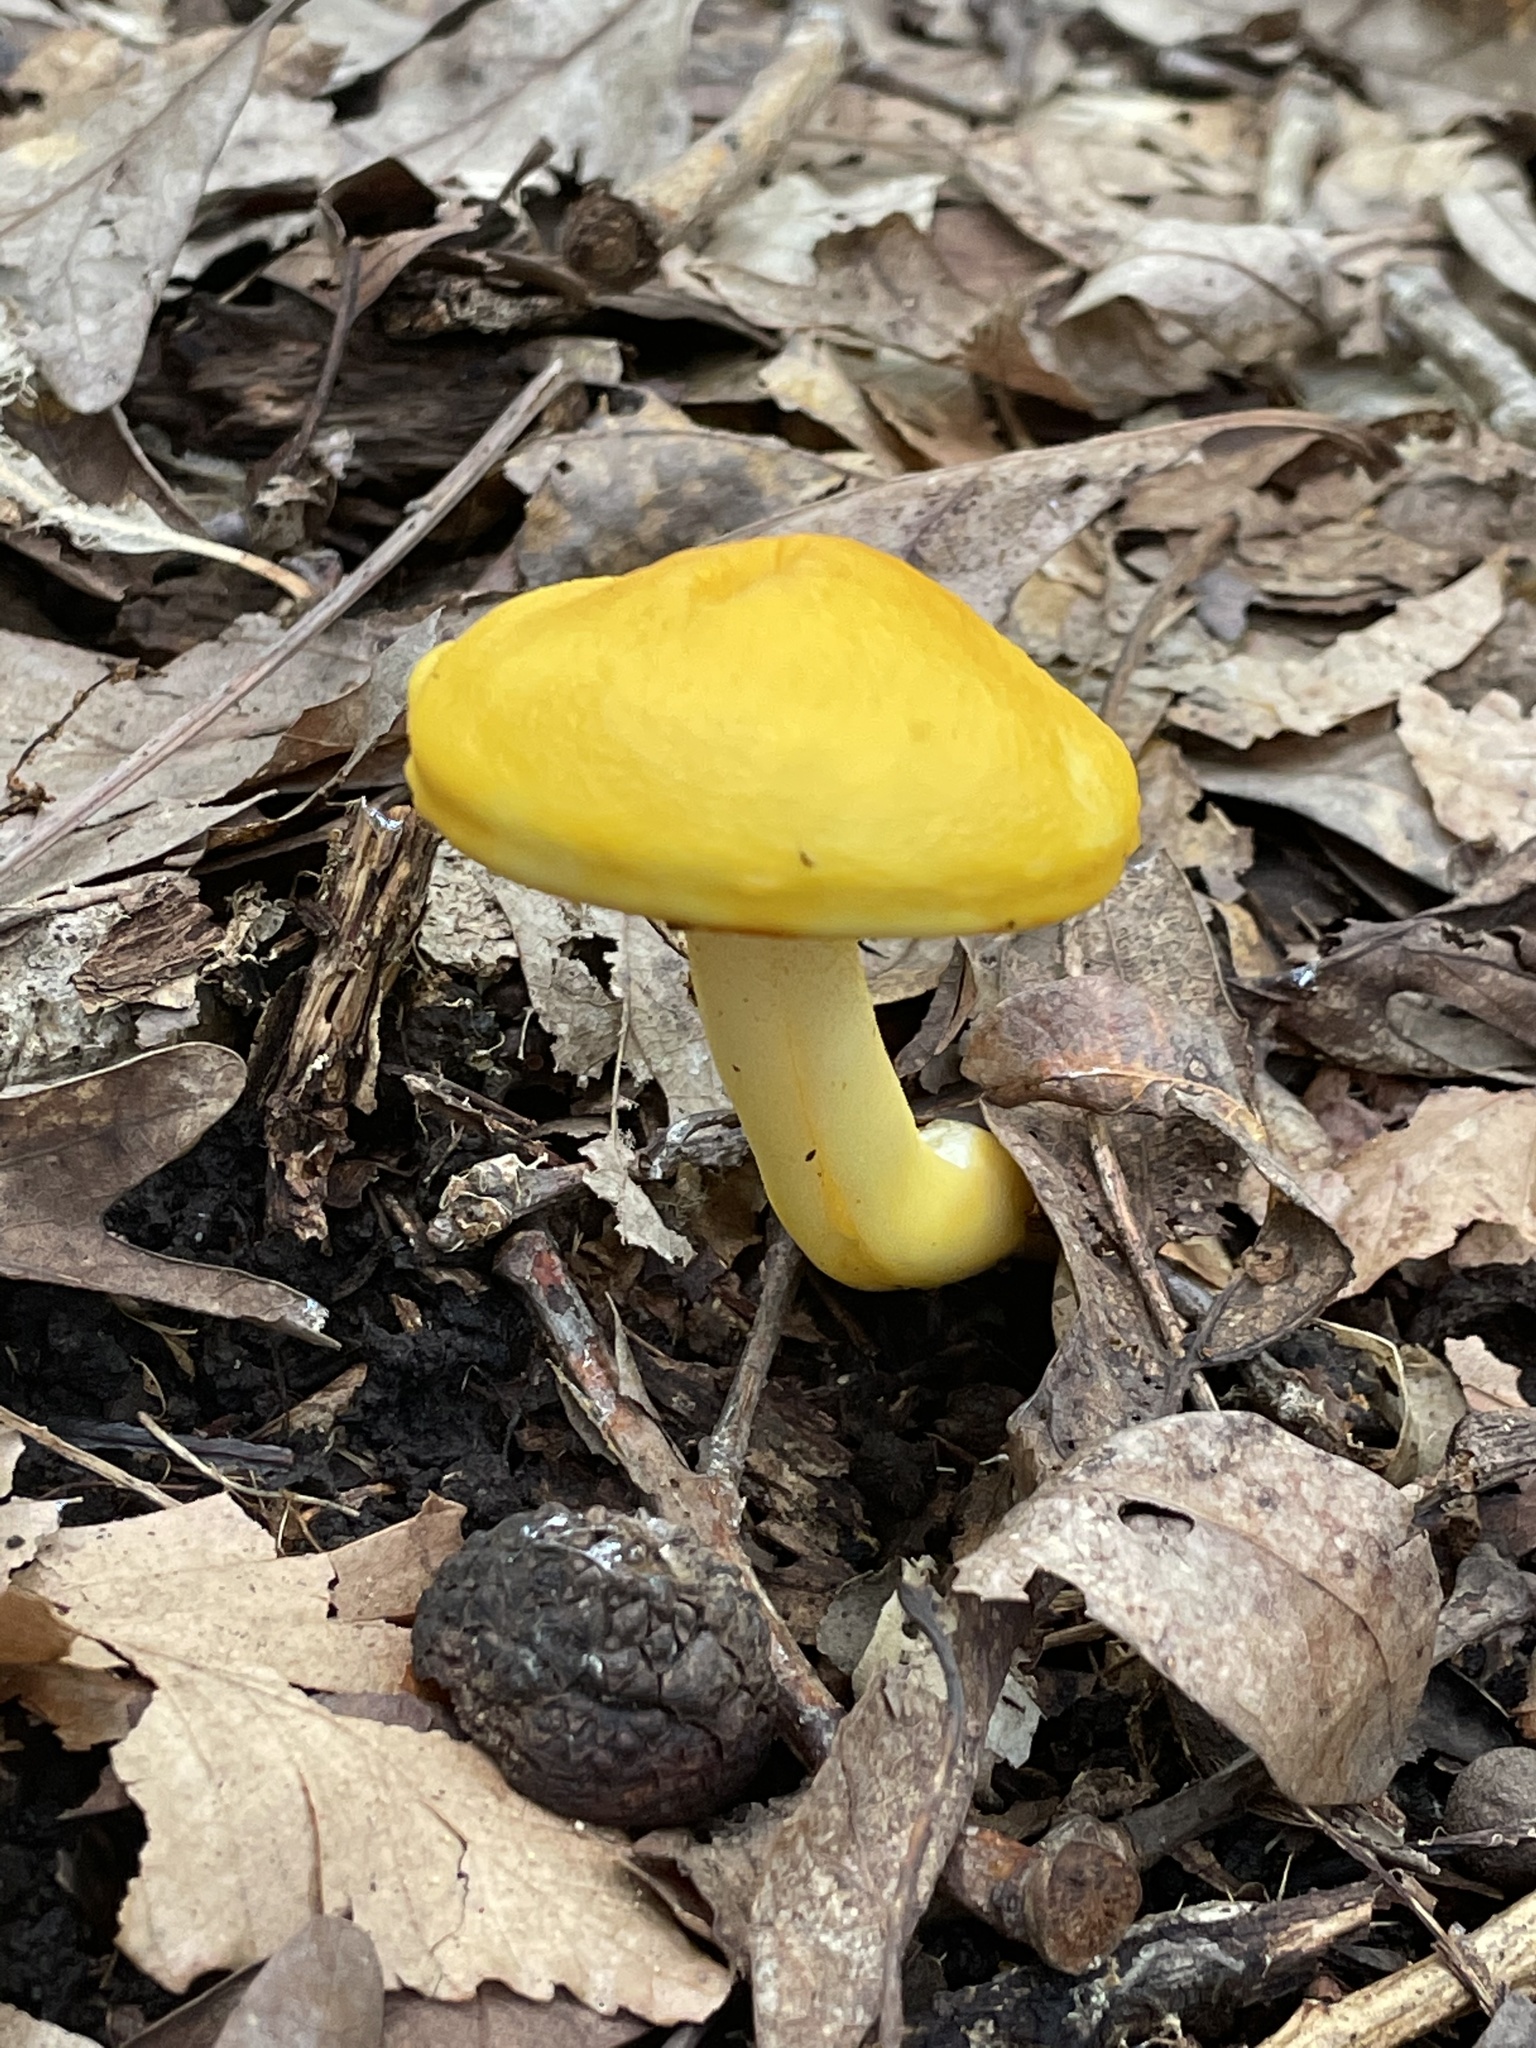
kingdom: Fungi
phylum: Basidiomycota
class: Agaricomycetes
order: Boletales
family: Boletaceae
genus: Pulveroboletus
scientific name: Pulveroboletus curtisii
